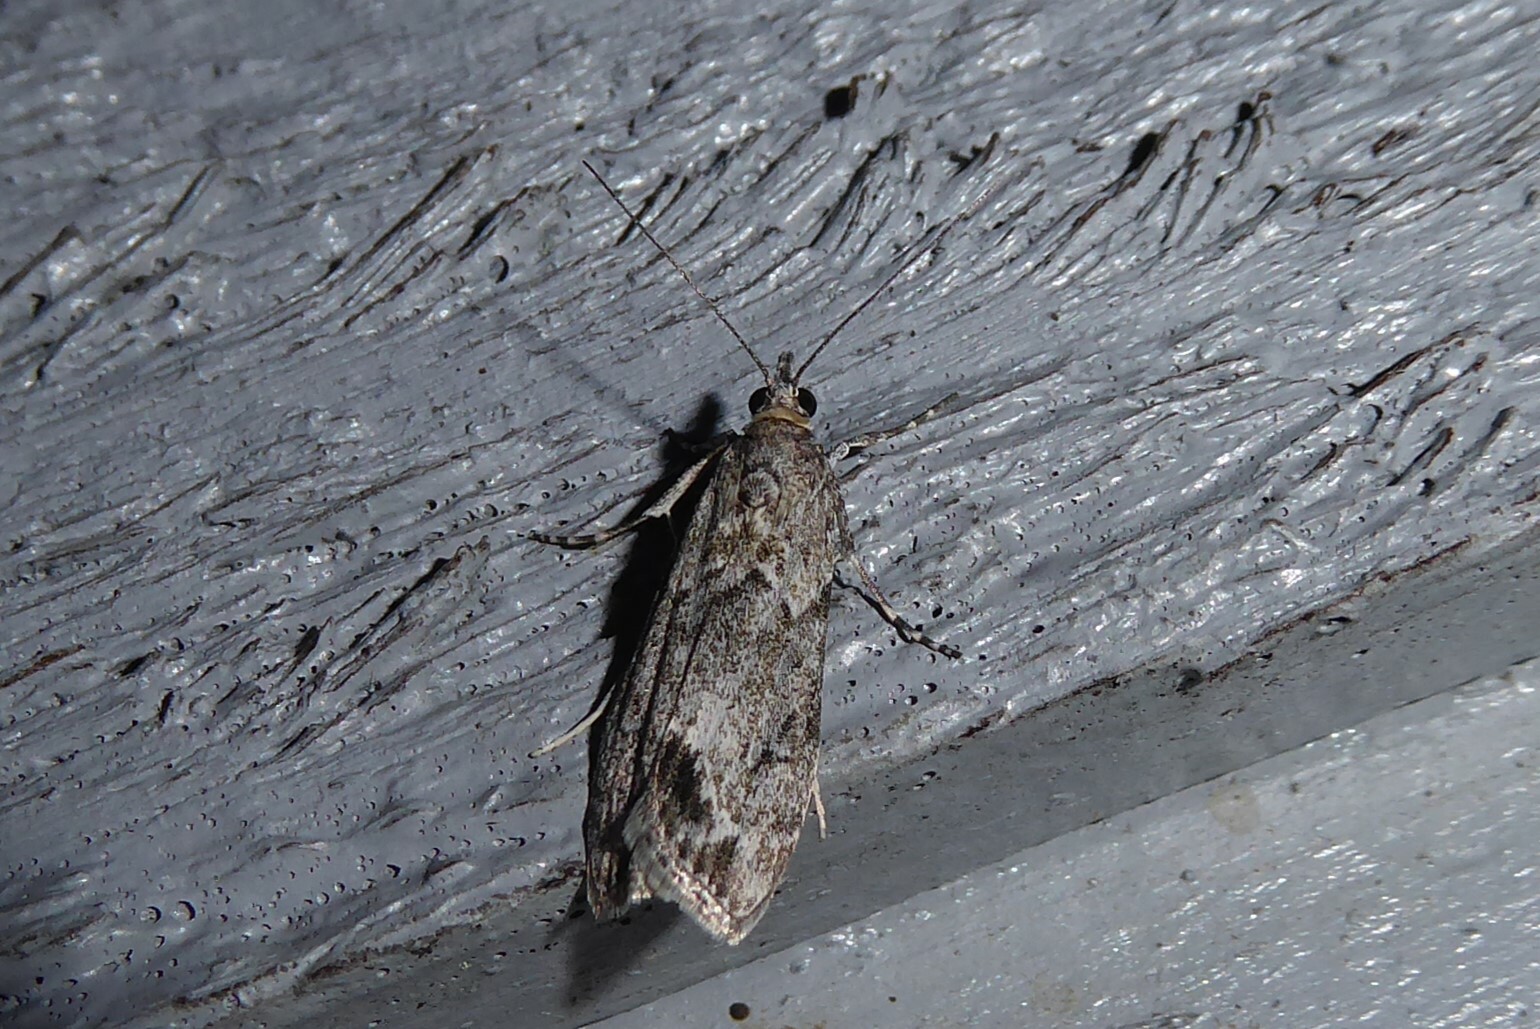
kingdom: Animalia
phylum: Arthropoda
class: Insecta
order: Lepidoptera
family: Crambidae
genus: Eudonia
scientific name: Eudonia rakaiensis
